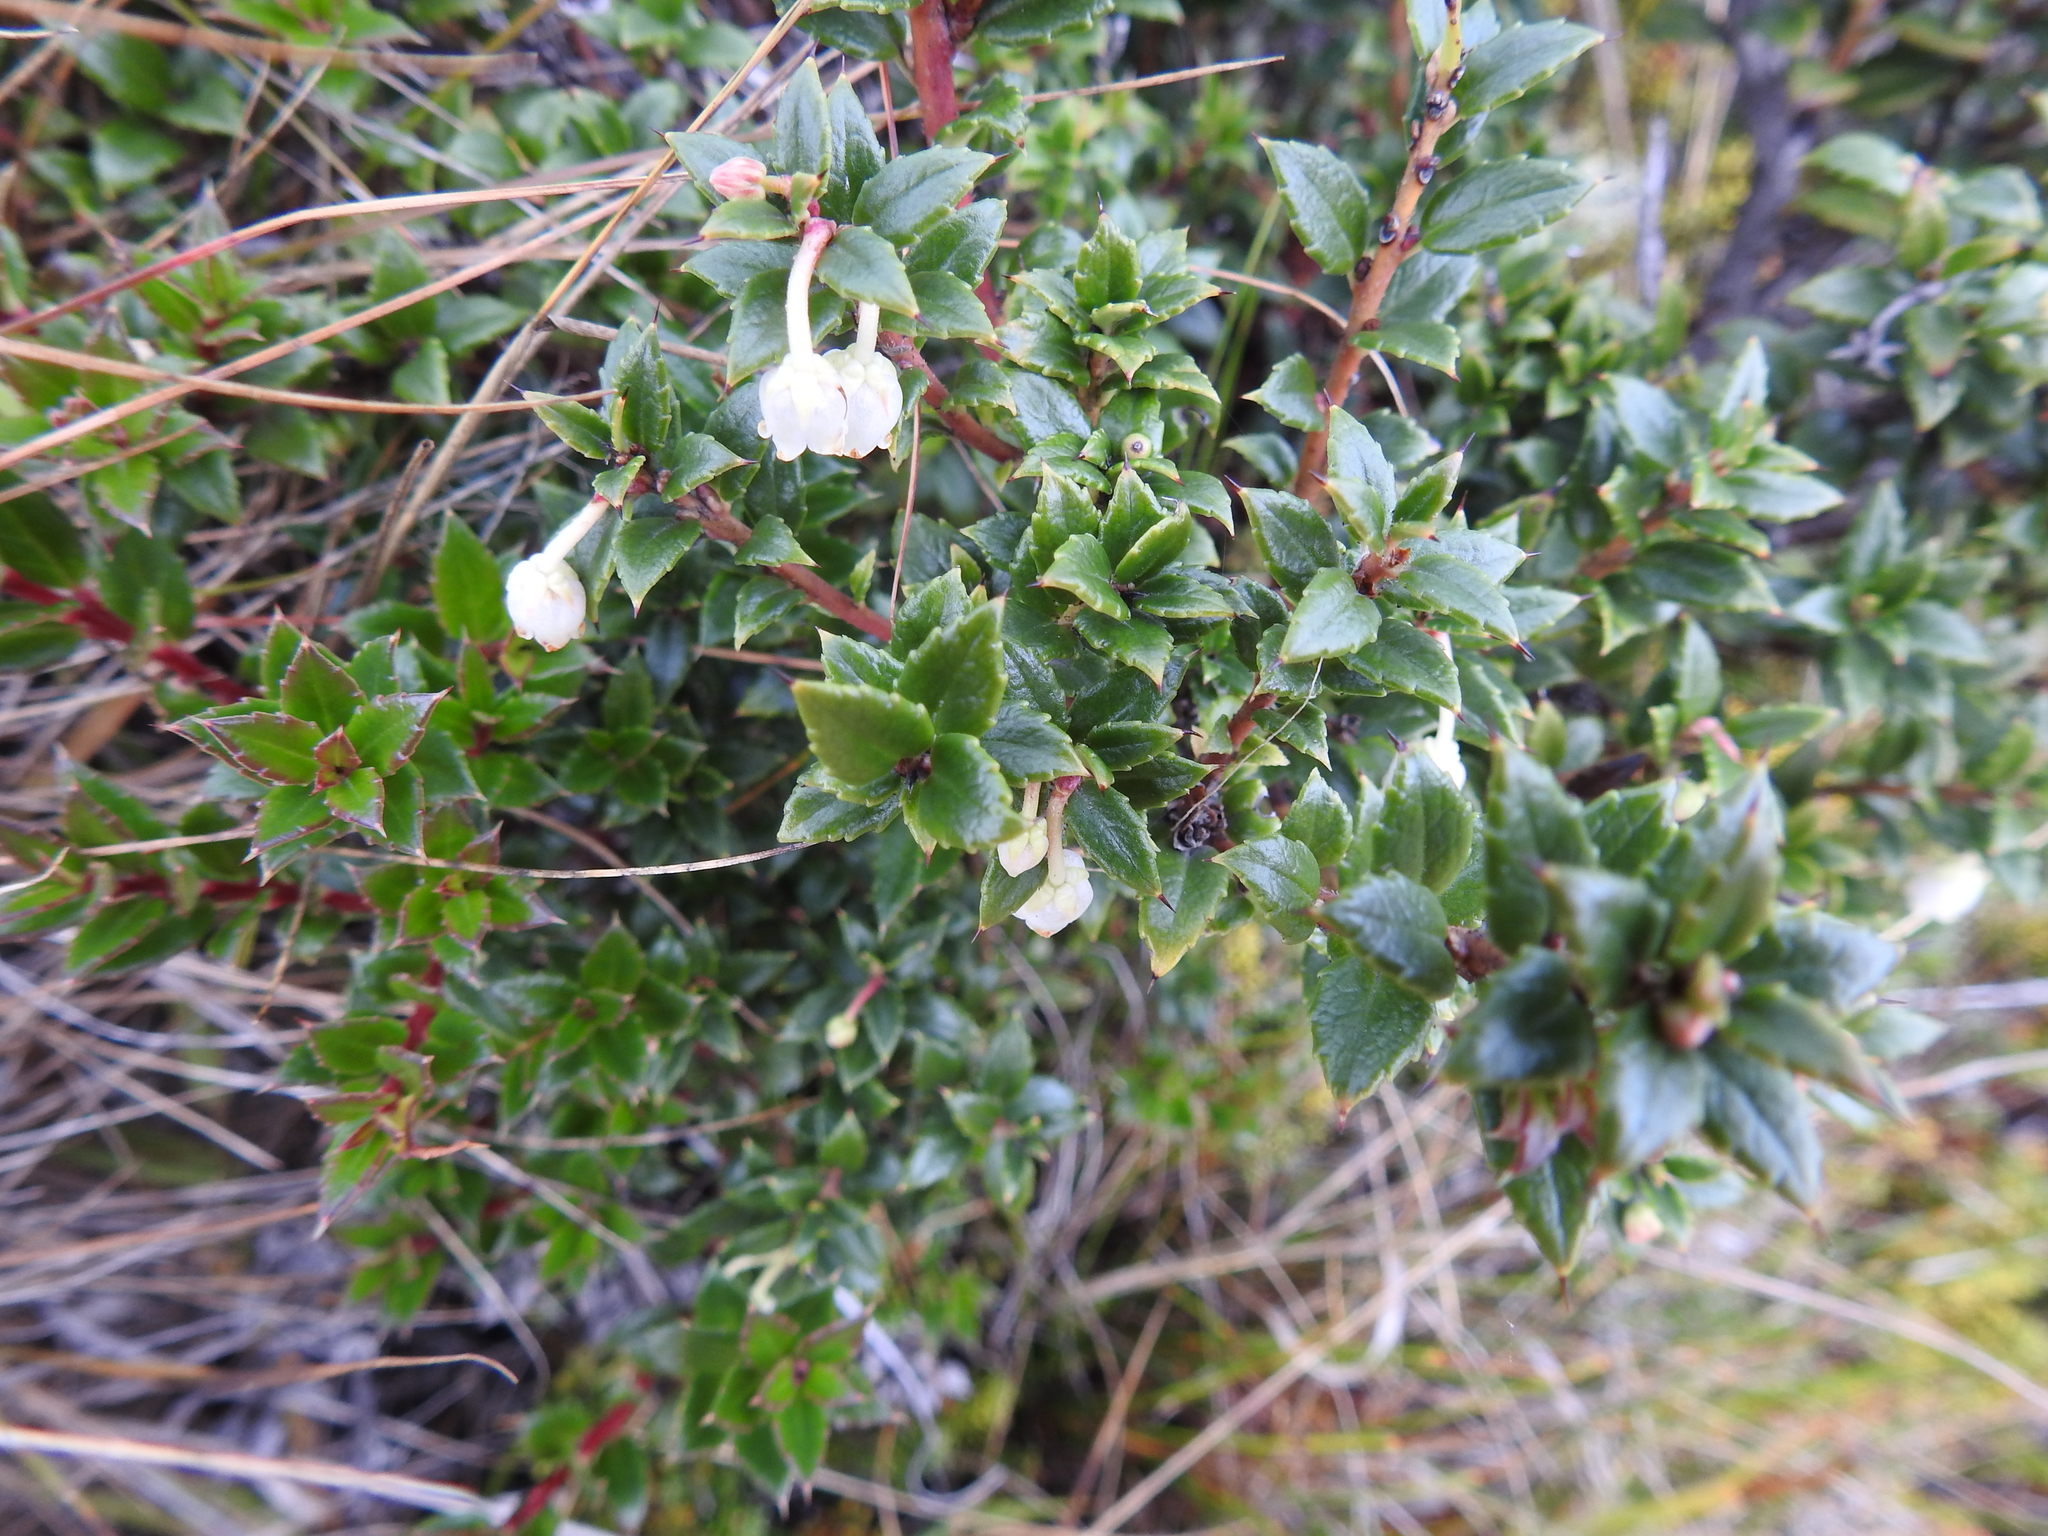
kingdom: Plantae
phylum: Tracheophyta
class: Magnoliopsida
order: Ericales
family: Ericaceae
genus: Gaultheria
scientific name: Gaultheria mucronata
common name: Prickly heath
